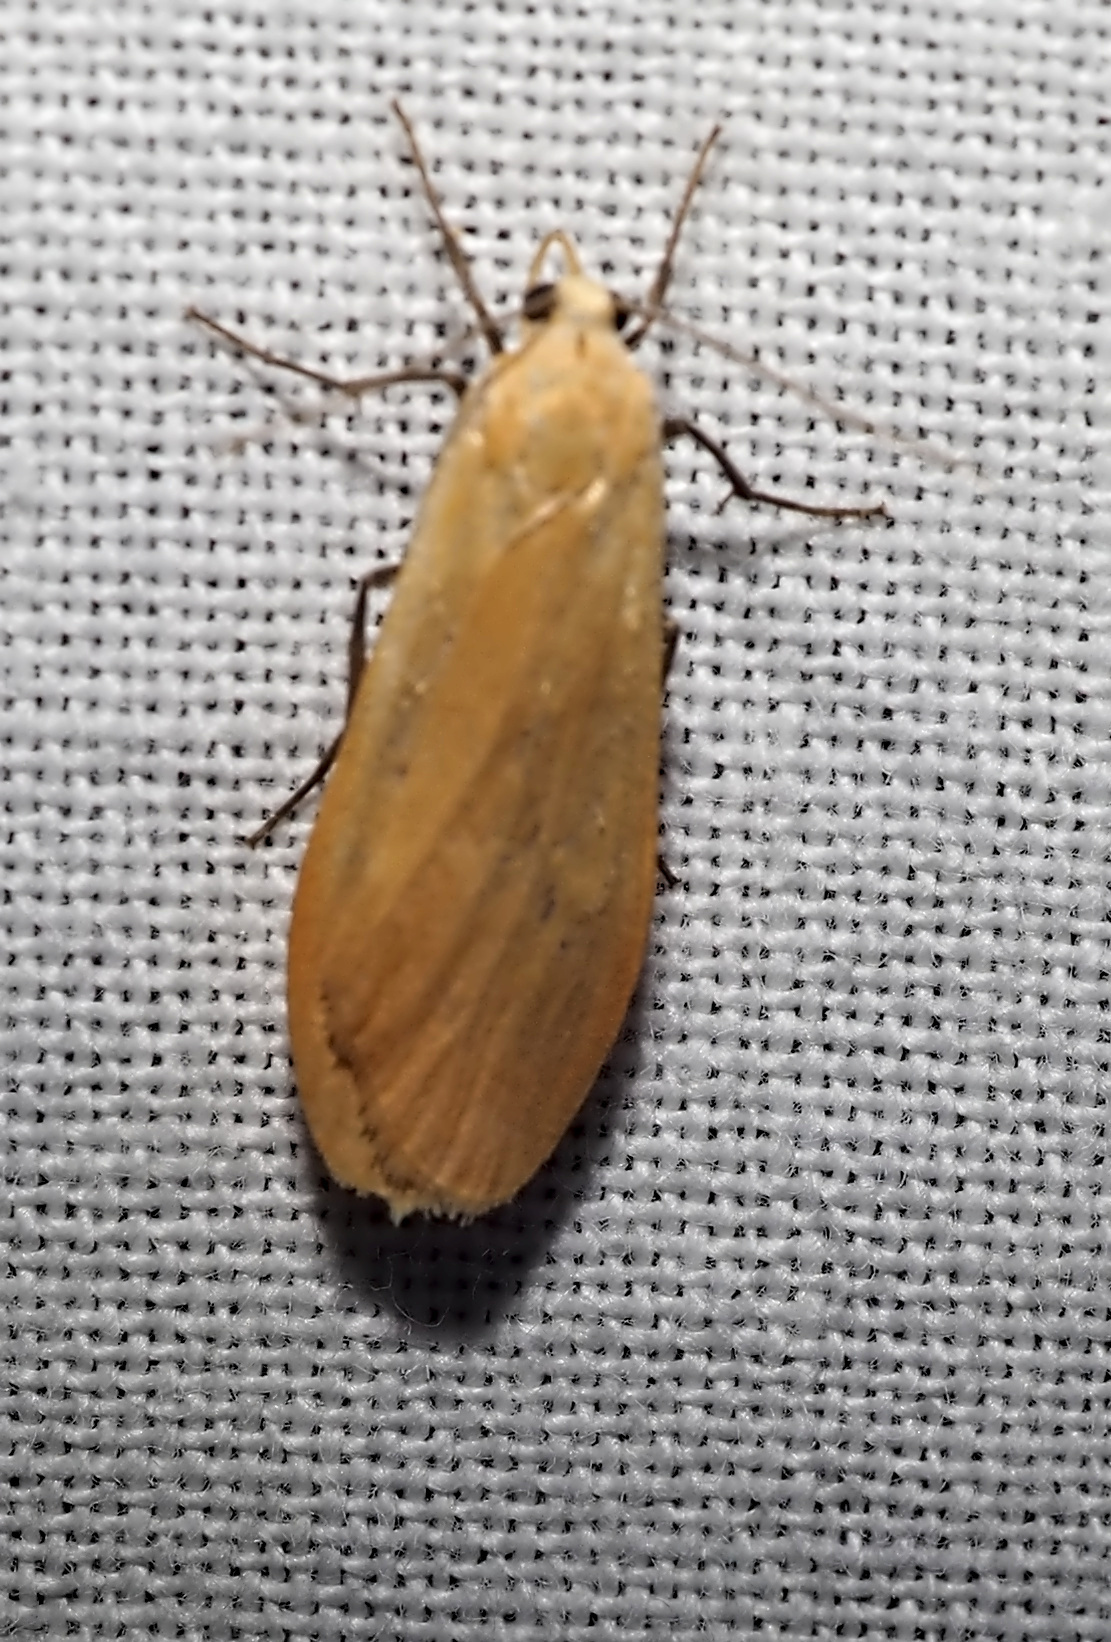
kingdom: Animalia
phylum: Arthropoda
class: Insecta
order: Lepidoptera
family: Erebidae
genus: Wittia
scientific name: Wittia sororcula
